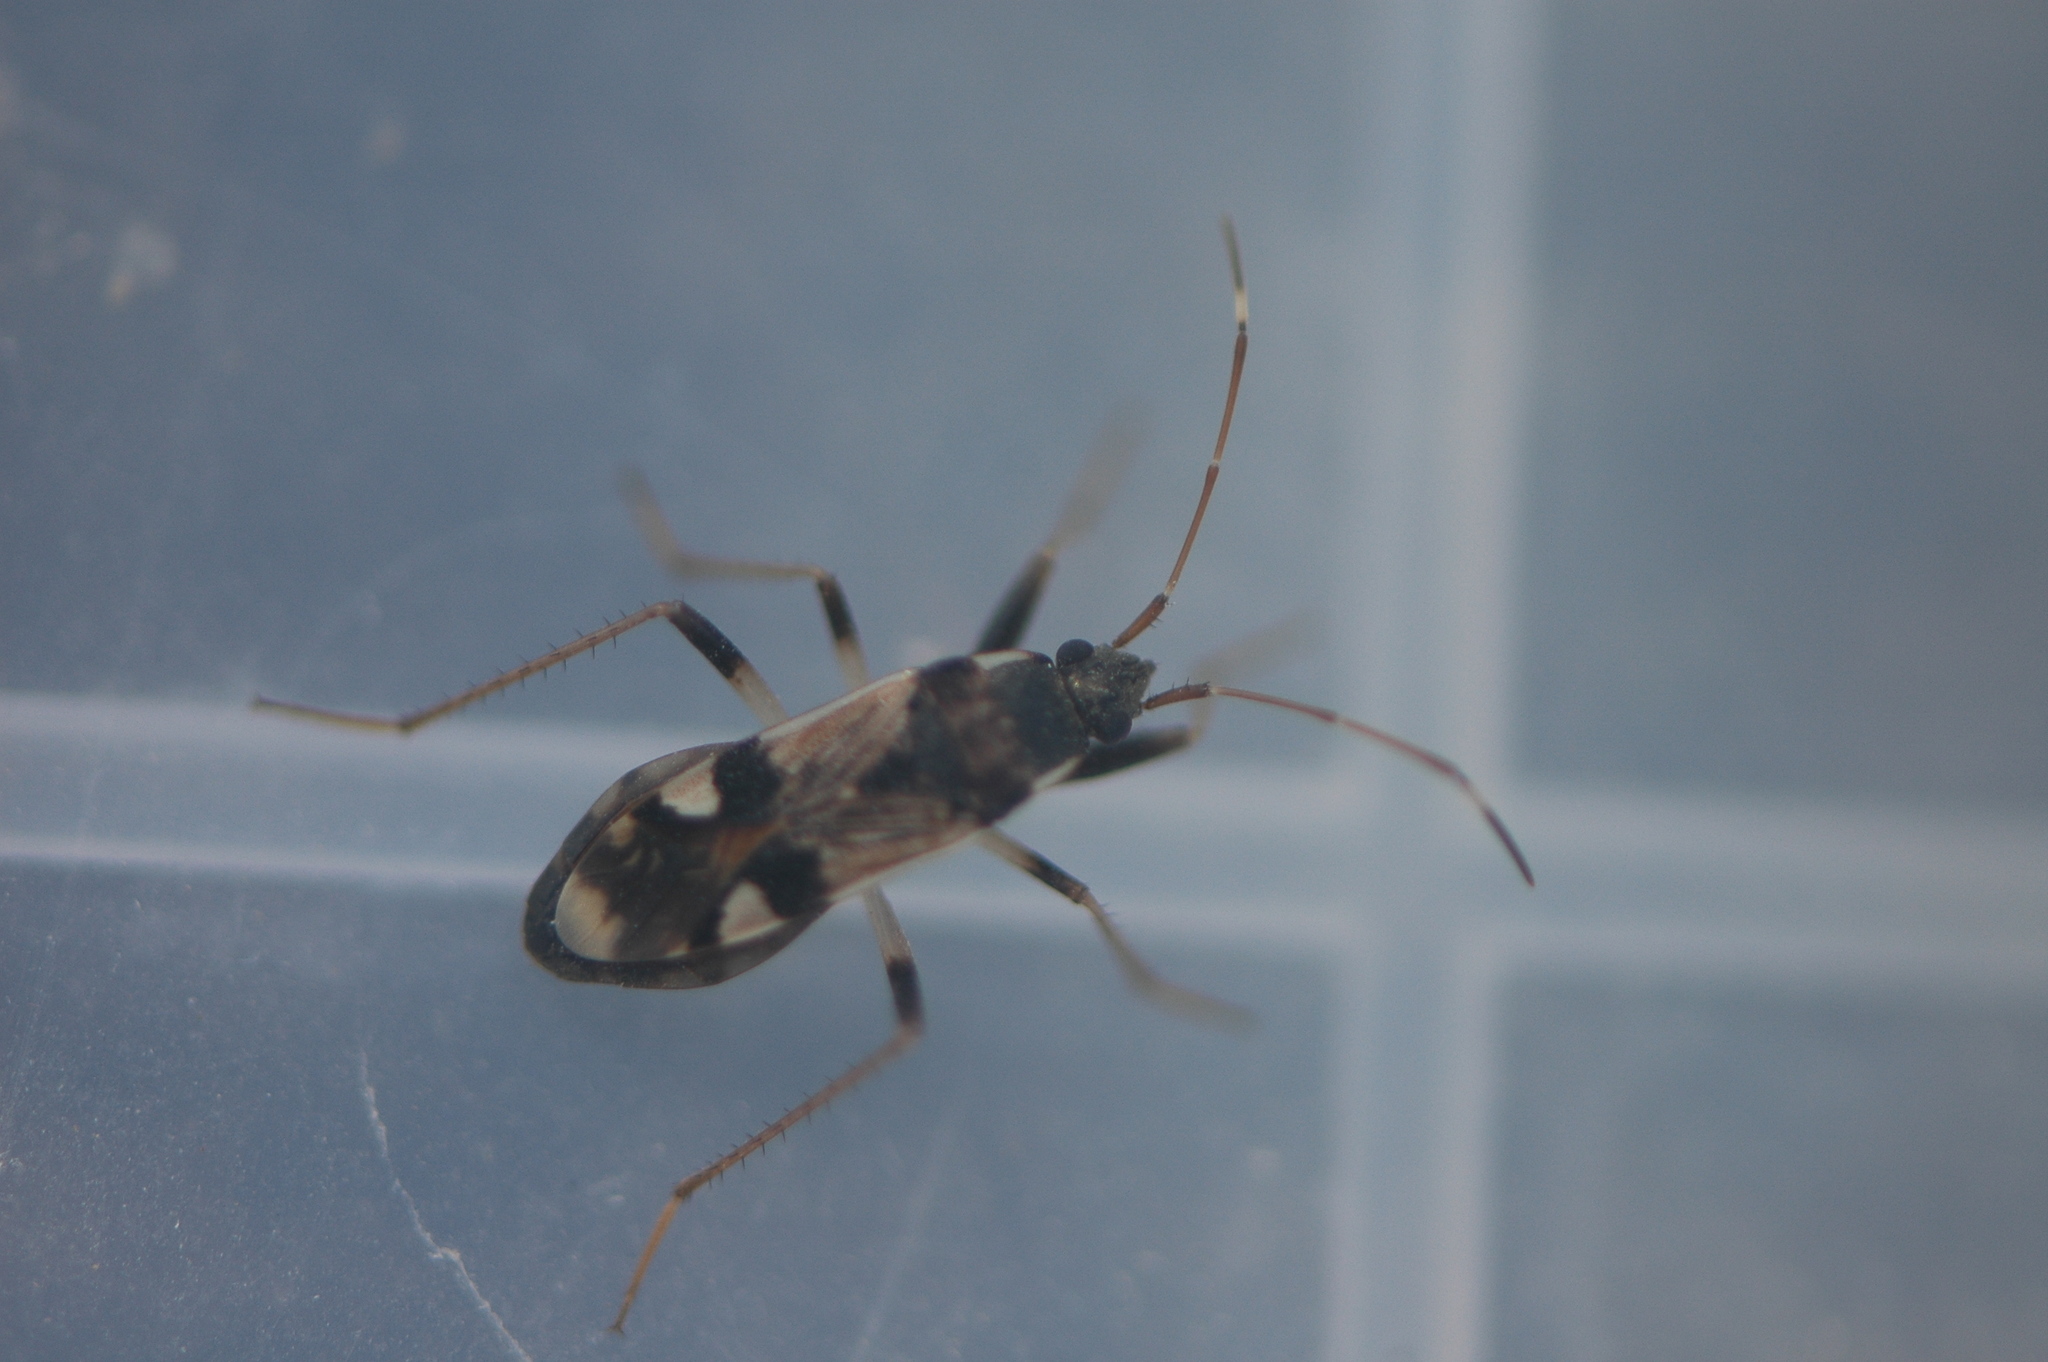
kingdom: Animalia
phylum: Arthropoda
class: Insecta
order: Hemiptera
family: Rhyparochromidae
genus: Dieuches
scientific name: Dieuches schmitzi
